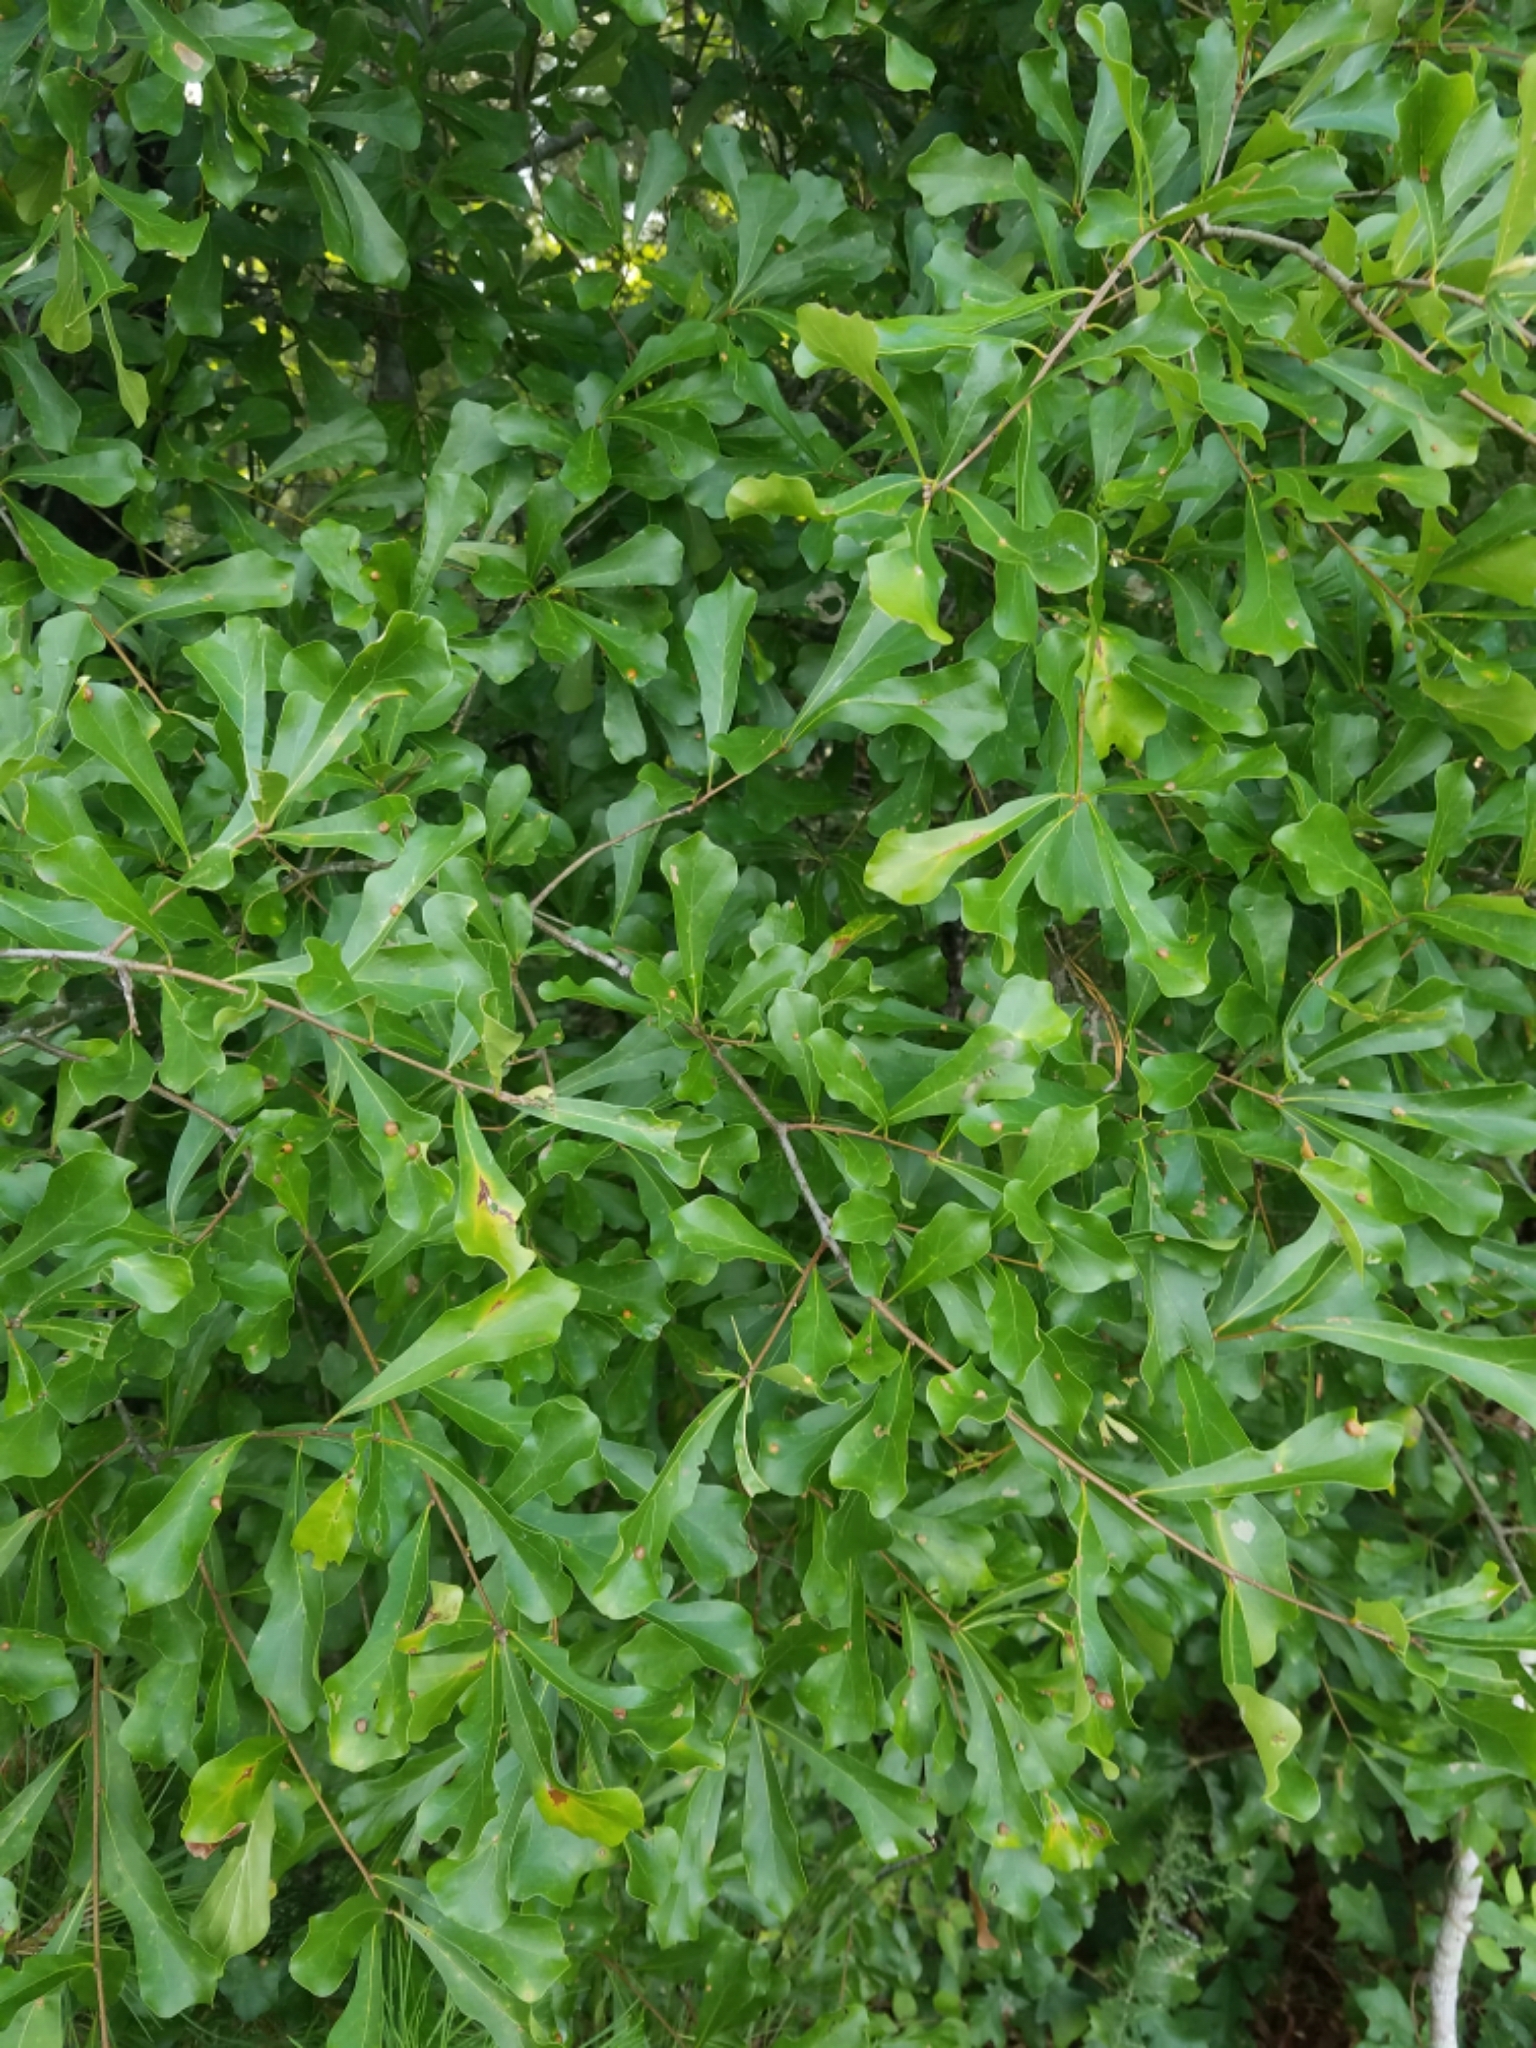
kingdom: Plantae
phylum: Tracheophyta
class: Magnoliopsida
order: Fagales
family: Fagaceae
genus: Quercus
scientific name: Quercus nigra
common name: Water oak
